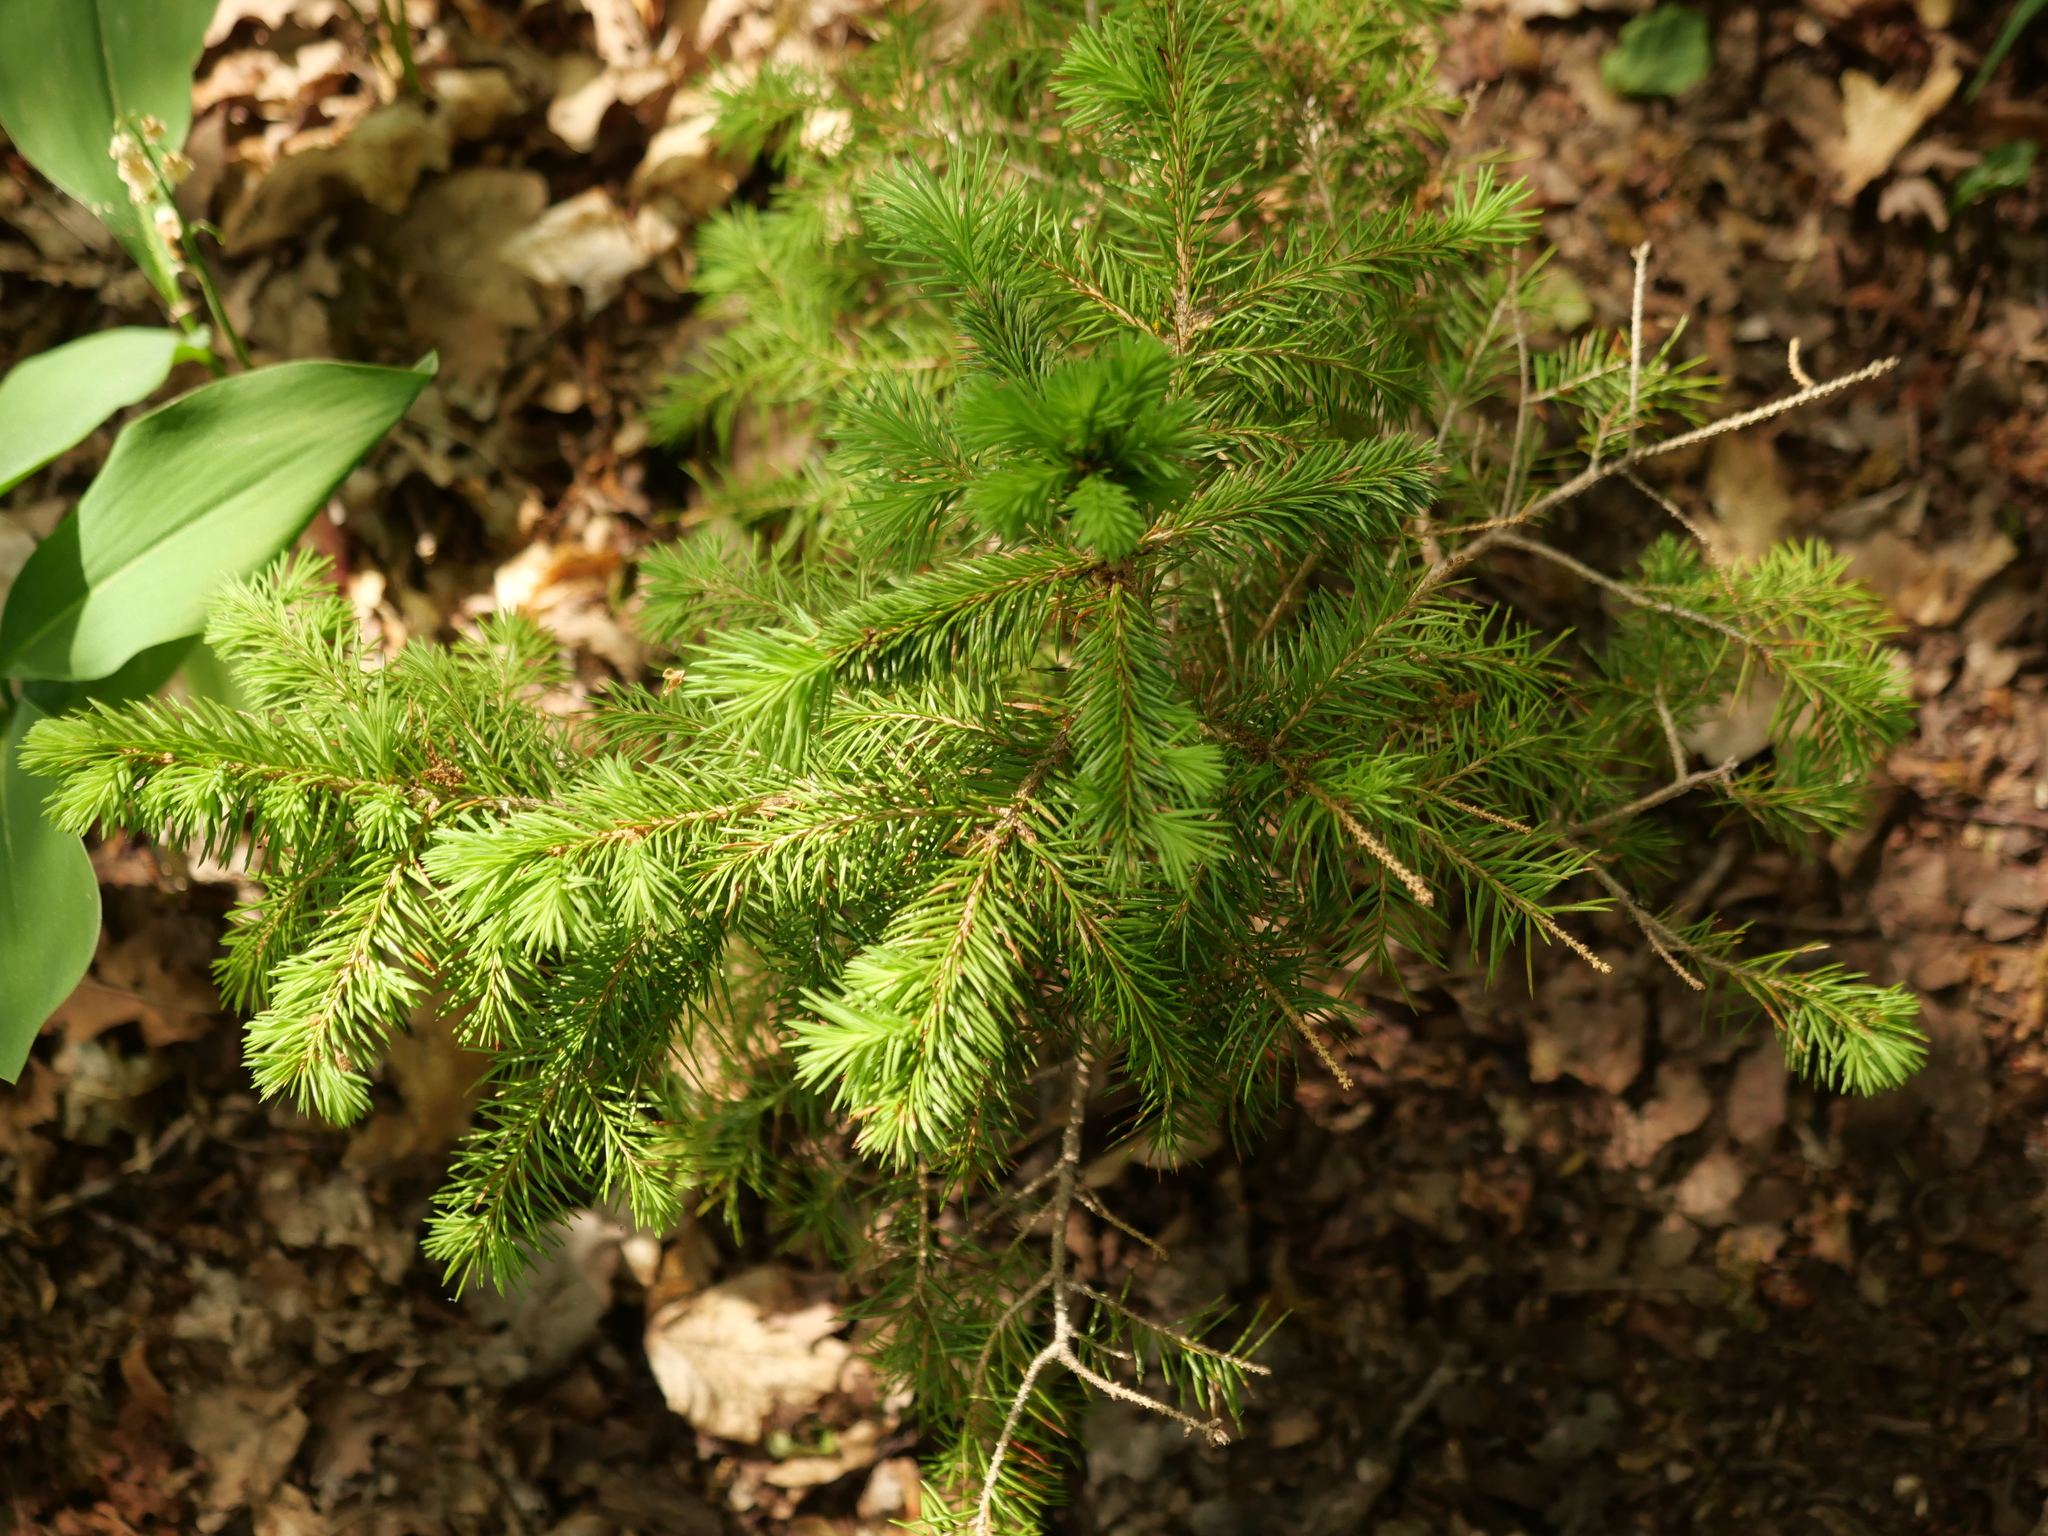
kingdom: Plantae
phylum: Tracheophyta
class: Pinopsida
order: Pinales
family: Pinaceae
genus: Picea
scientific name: Picea abies
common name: Norway spruce
